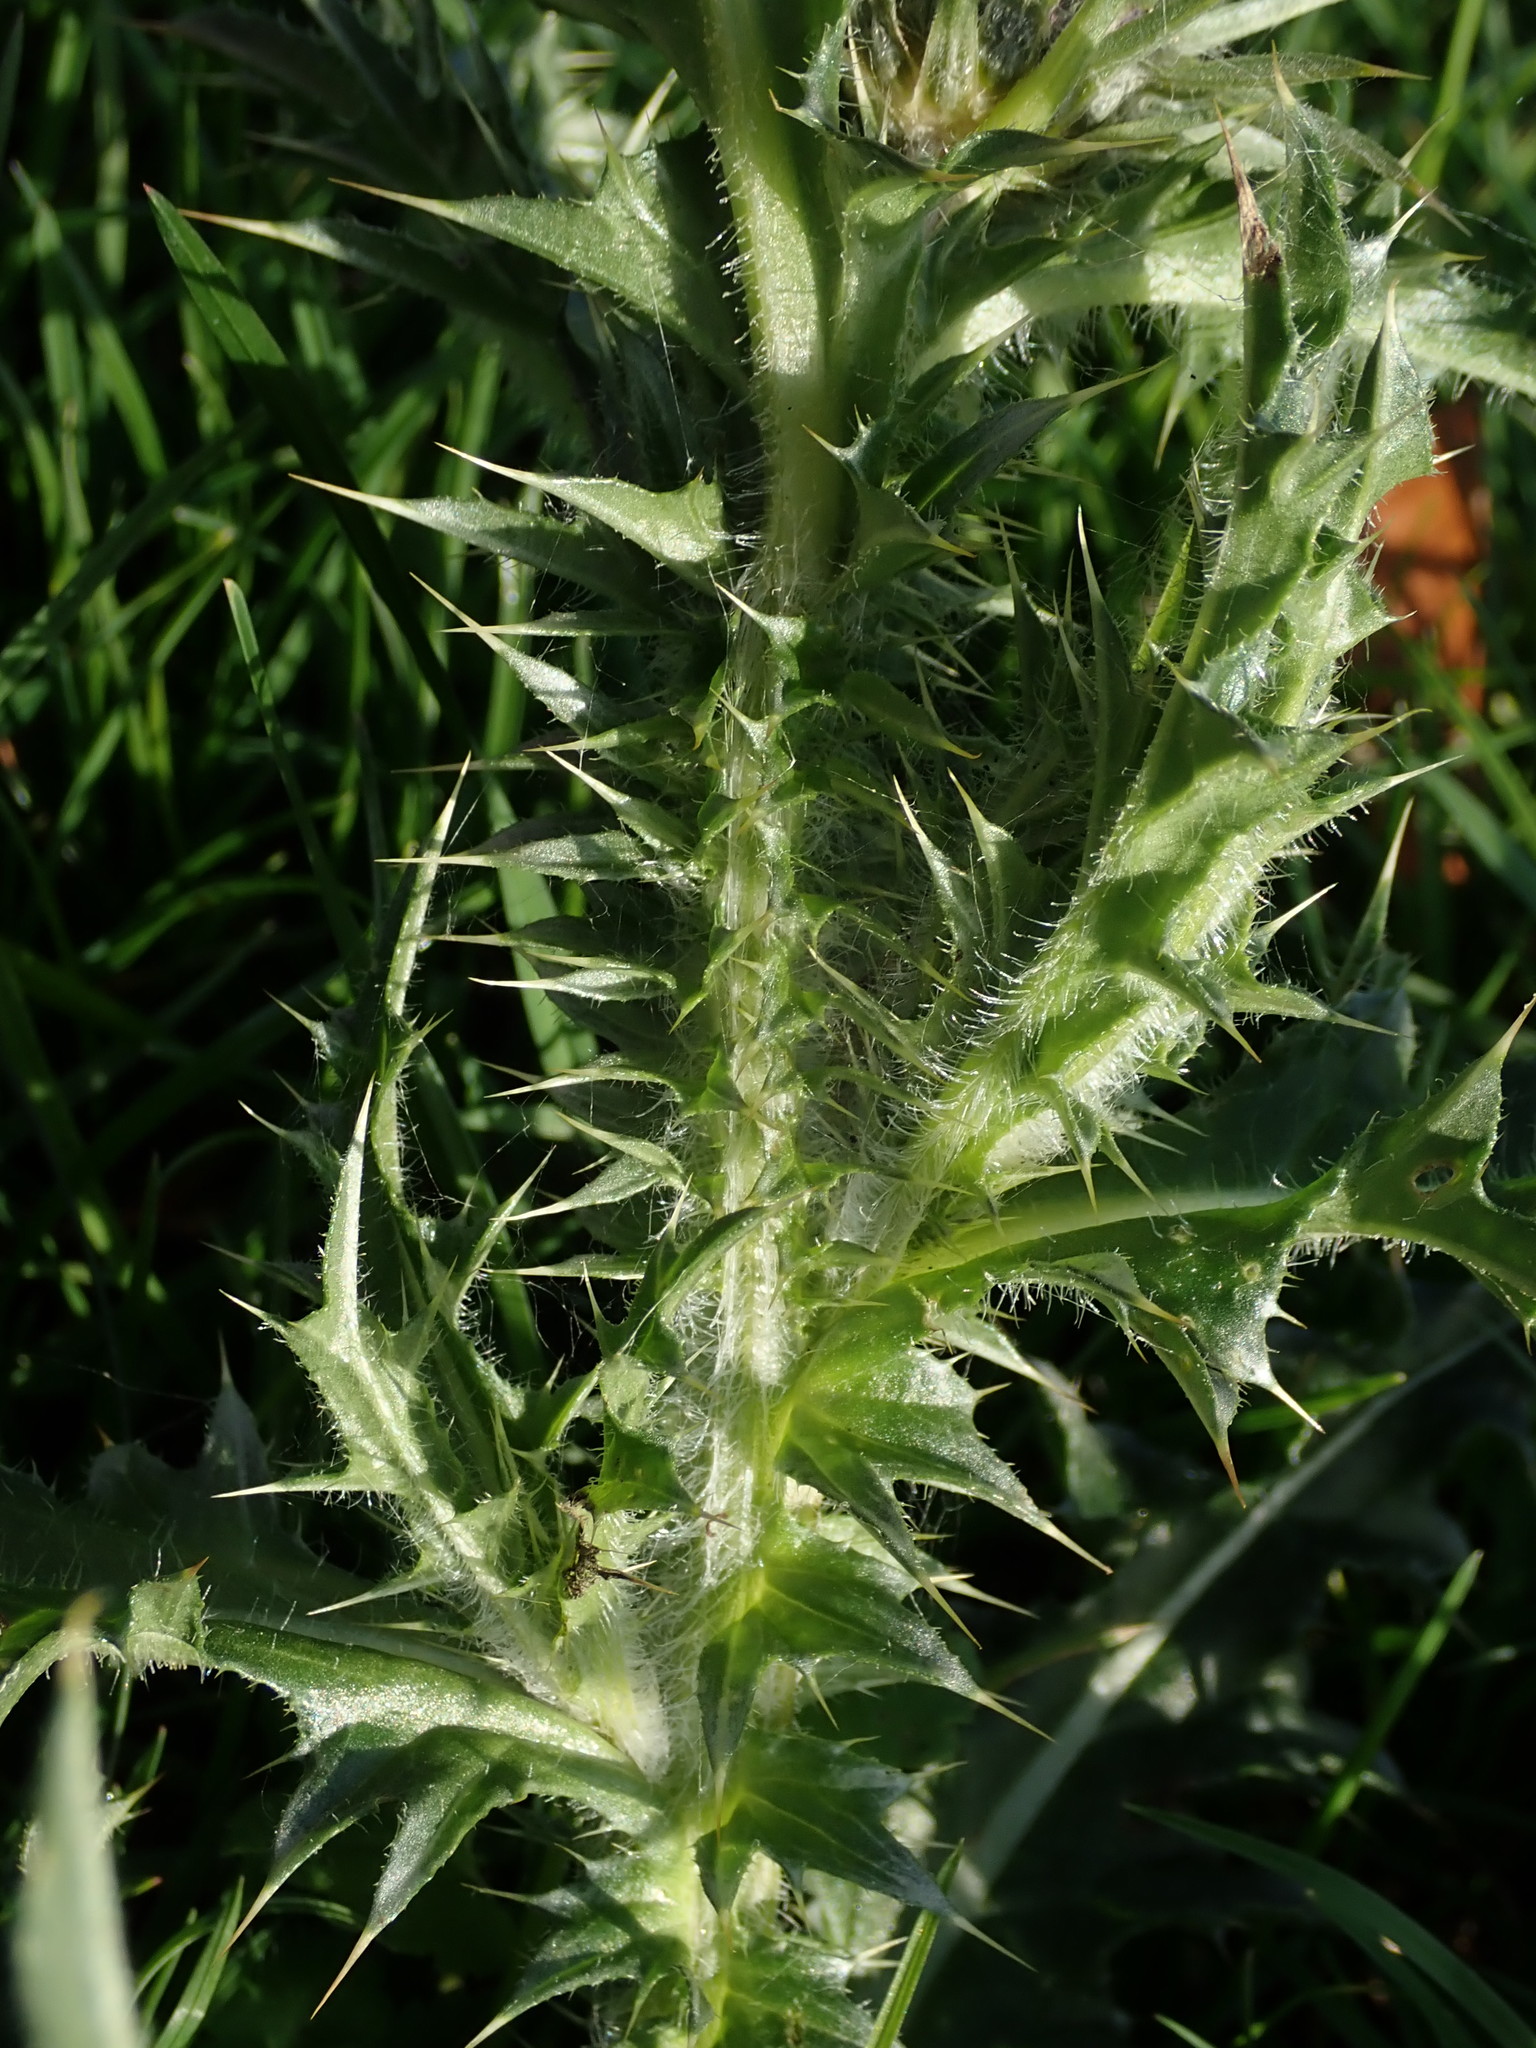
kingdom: Plantae
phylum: Tracheophyta
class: Magnoliopsida
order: Asterales
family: Asteraceae
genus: Carduus
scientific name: Carduus nutans
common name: Musk thistle
